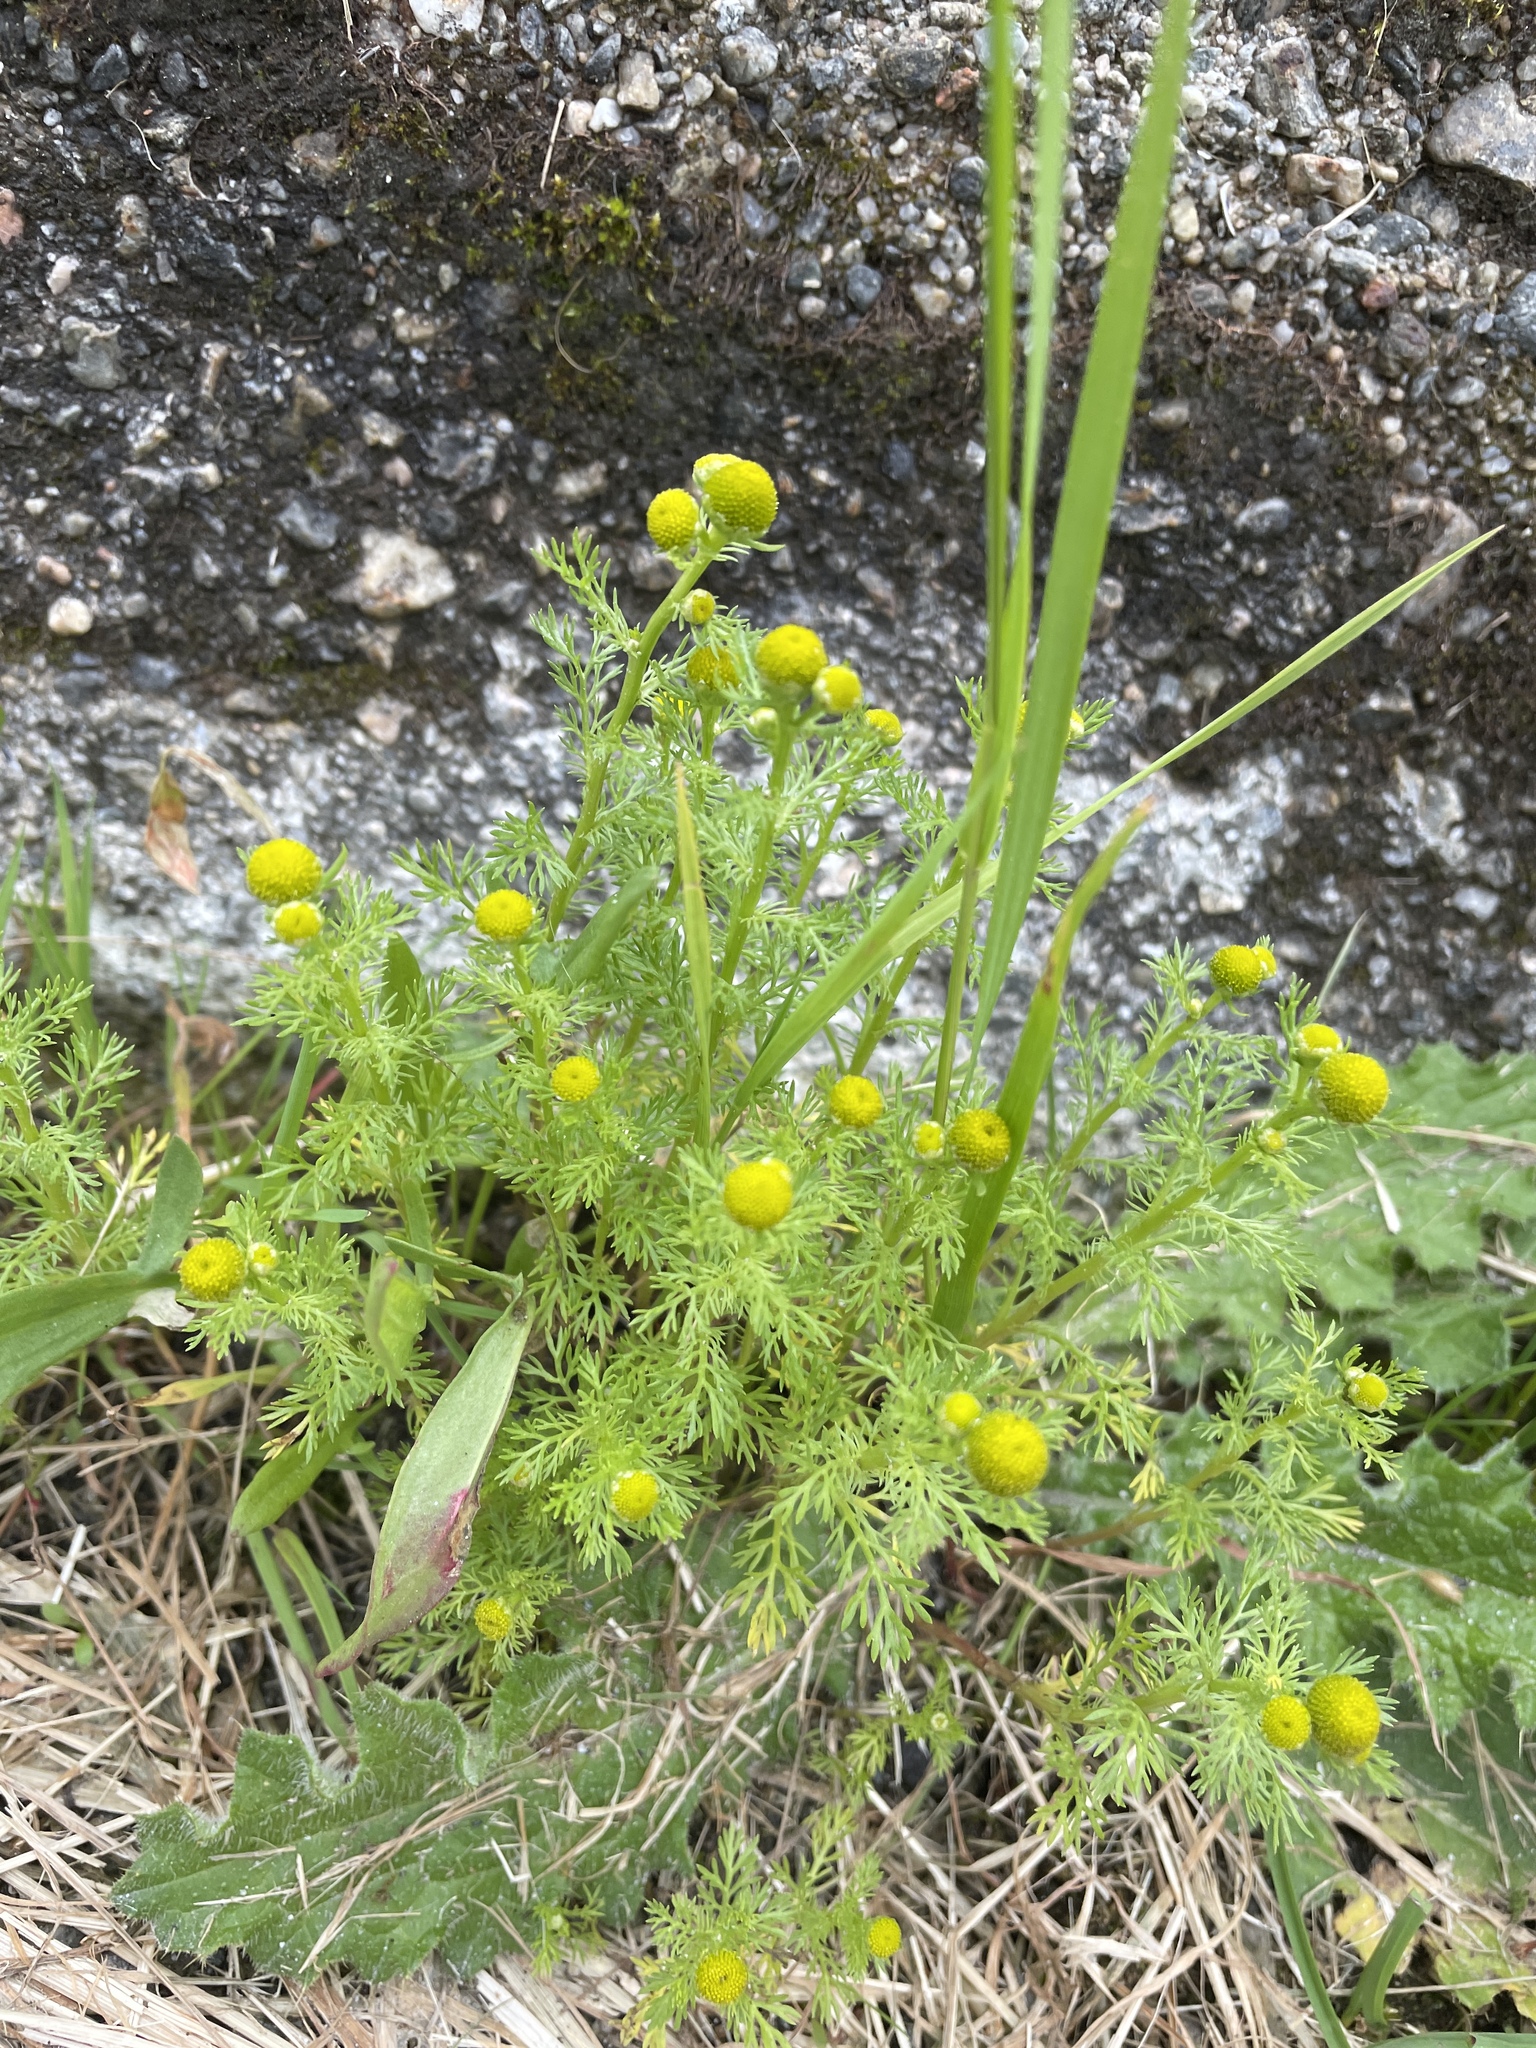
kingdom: Plantae
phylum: Tracheophyta
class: Magnoliopsida
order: Asterales
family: Asteraceae
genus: Matricaria
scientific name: Matricaria discoidea
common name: Disc mayweed
